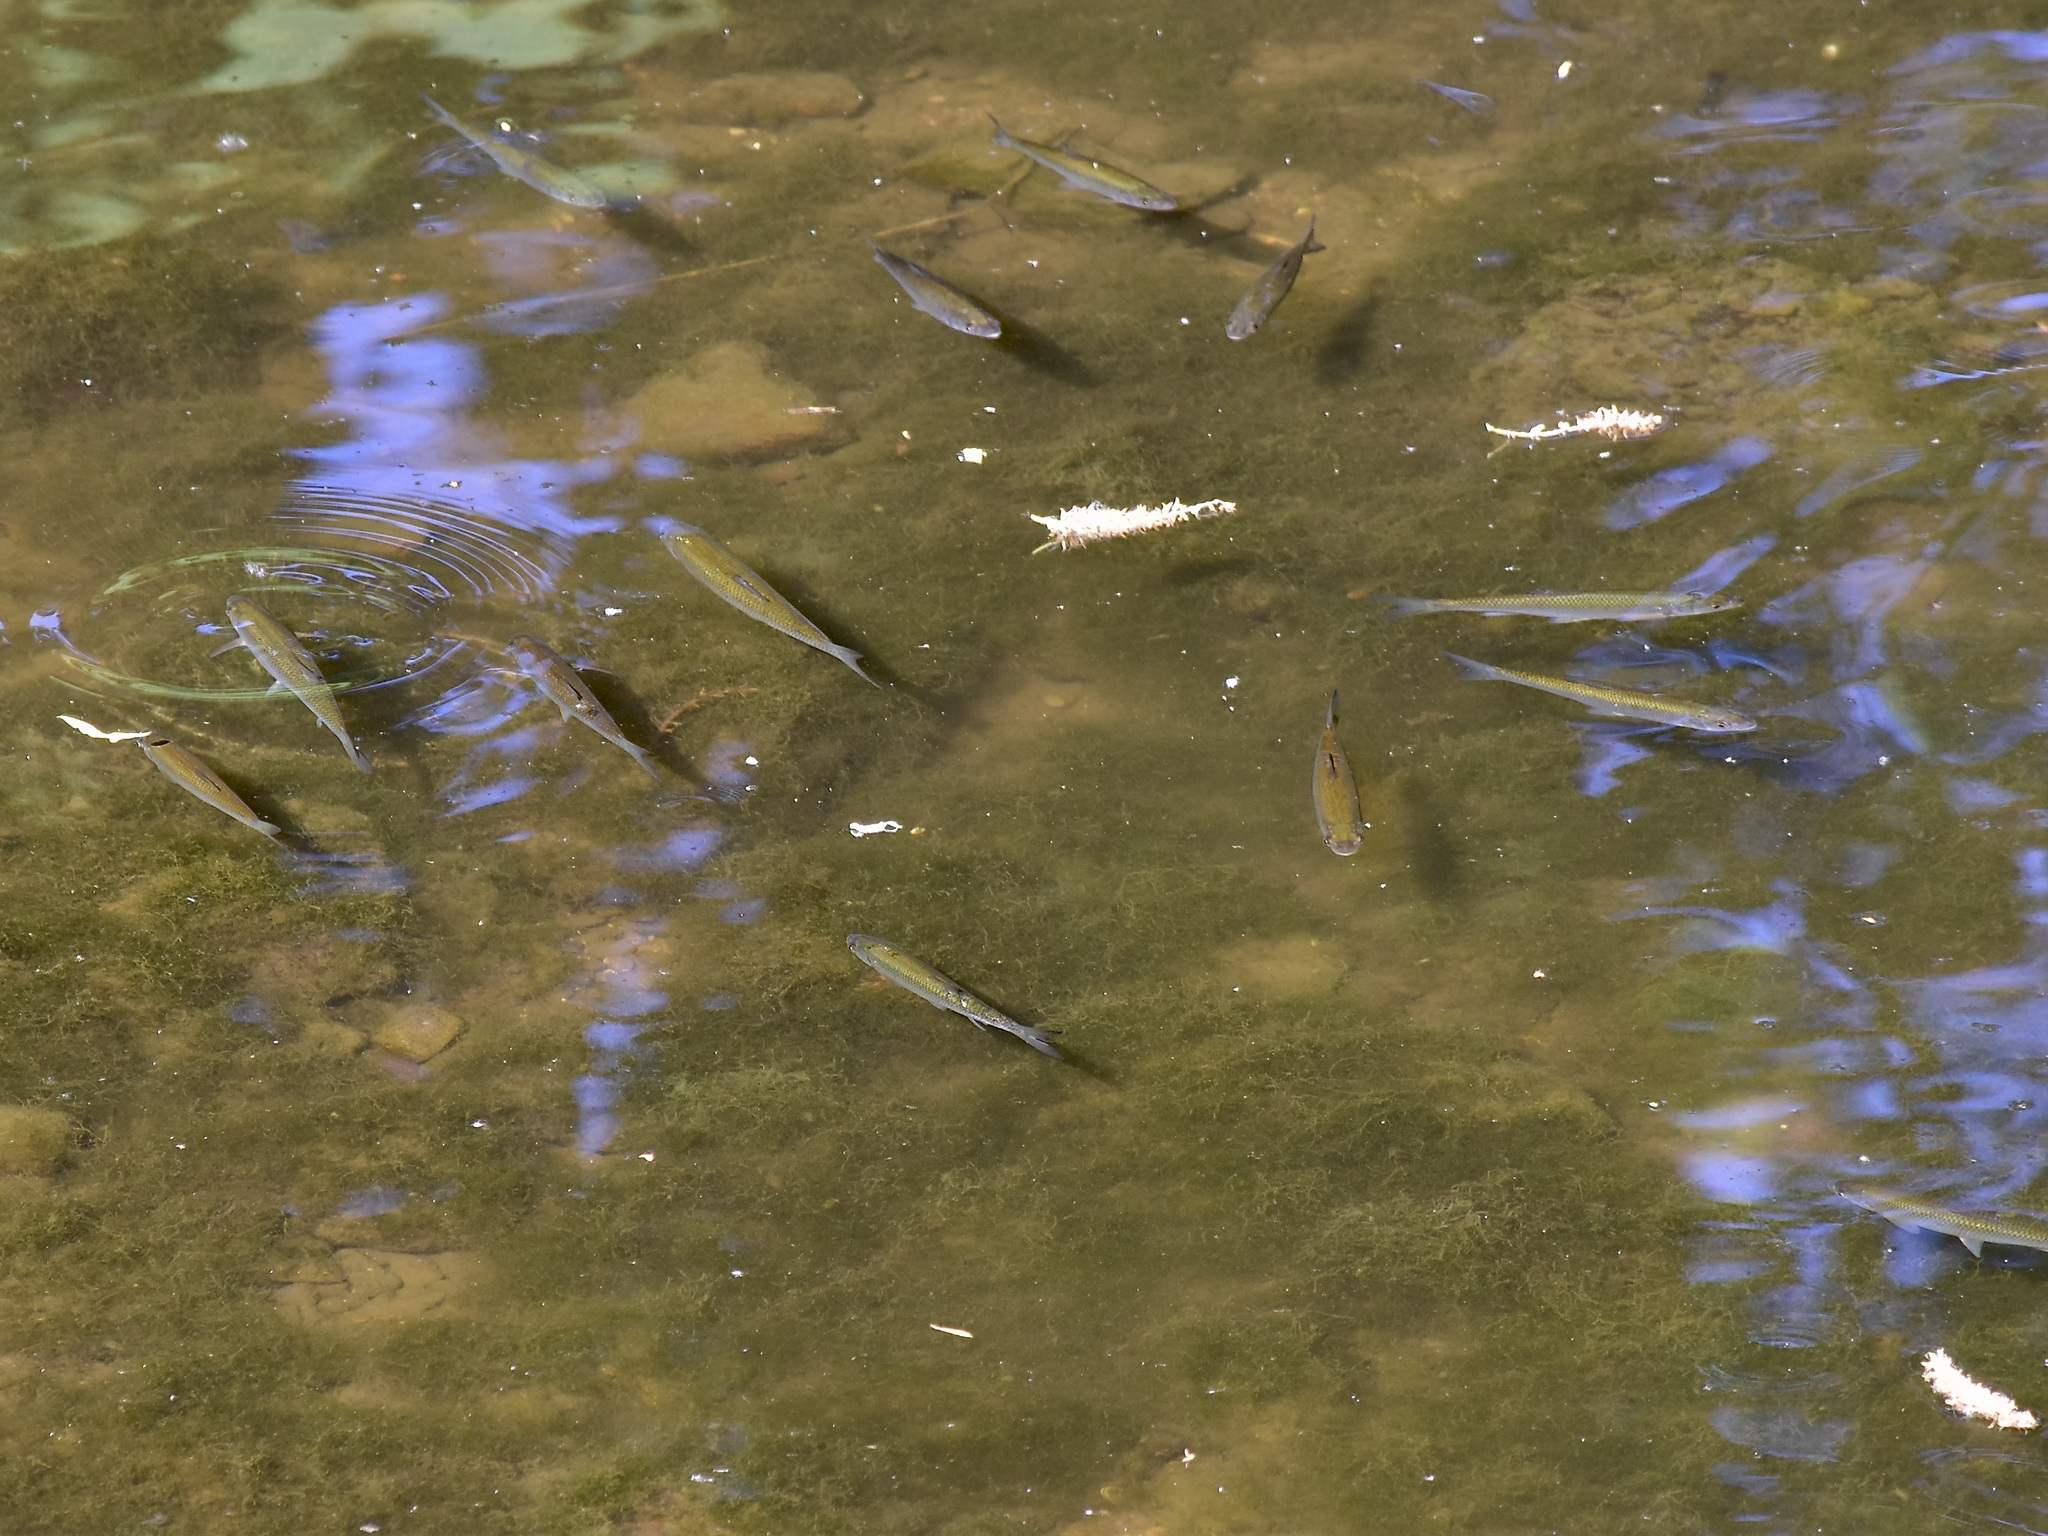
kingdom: Animalia
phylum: Chordata
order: Cypriniformes
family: Cyprinidae
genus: Squalius
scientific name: Squalius cephalus
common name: Chub
